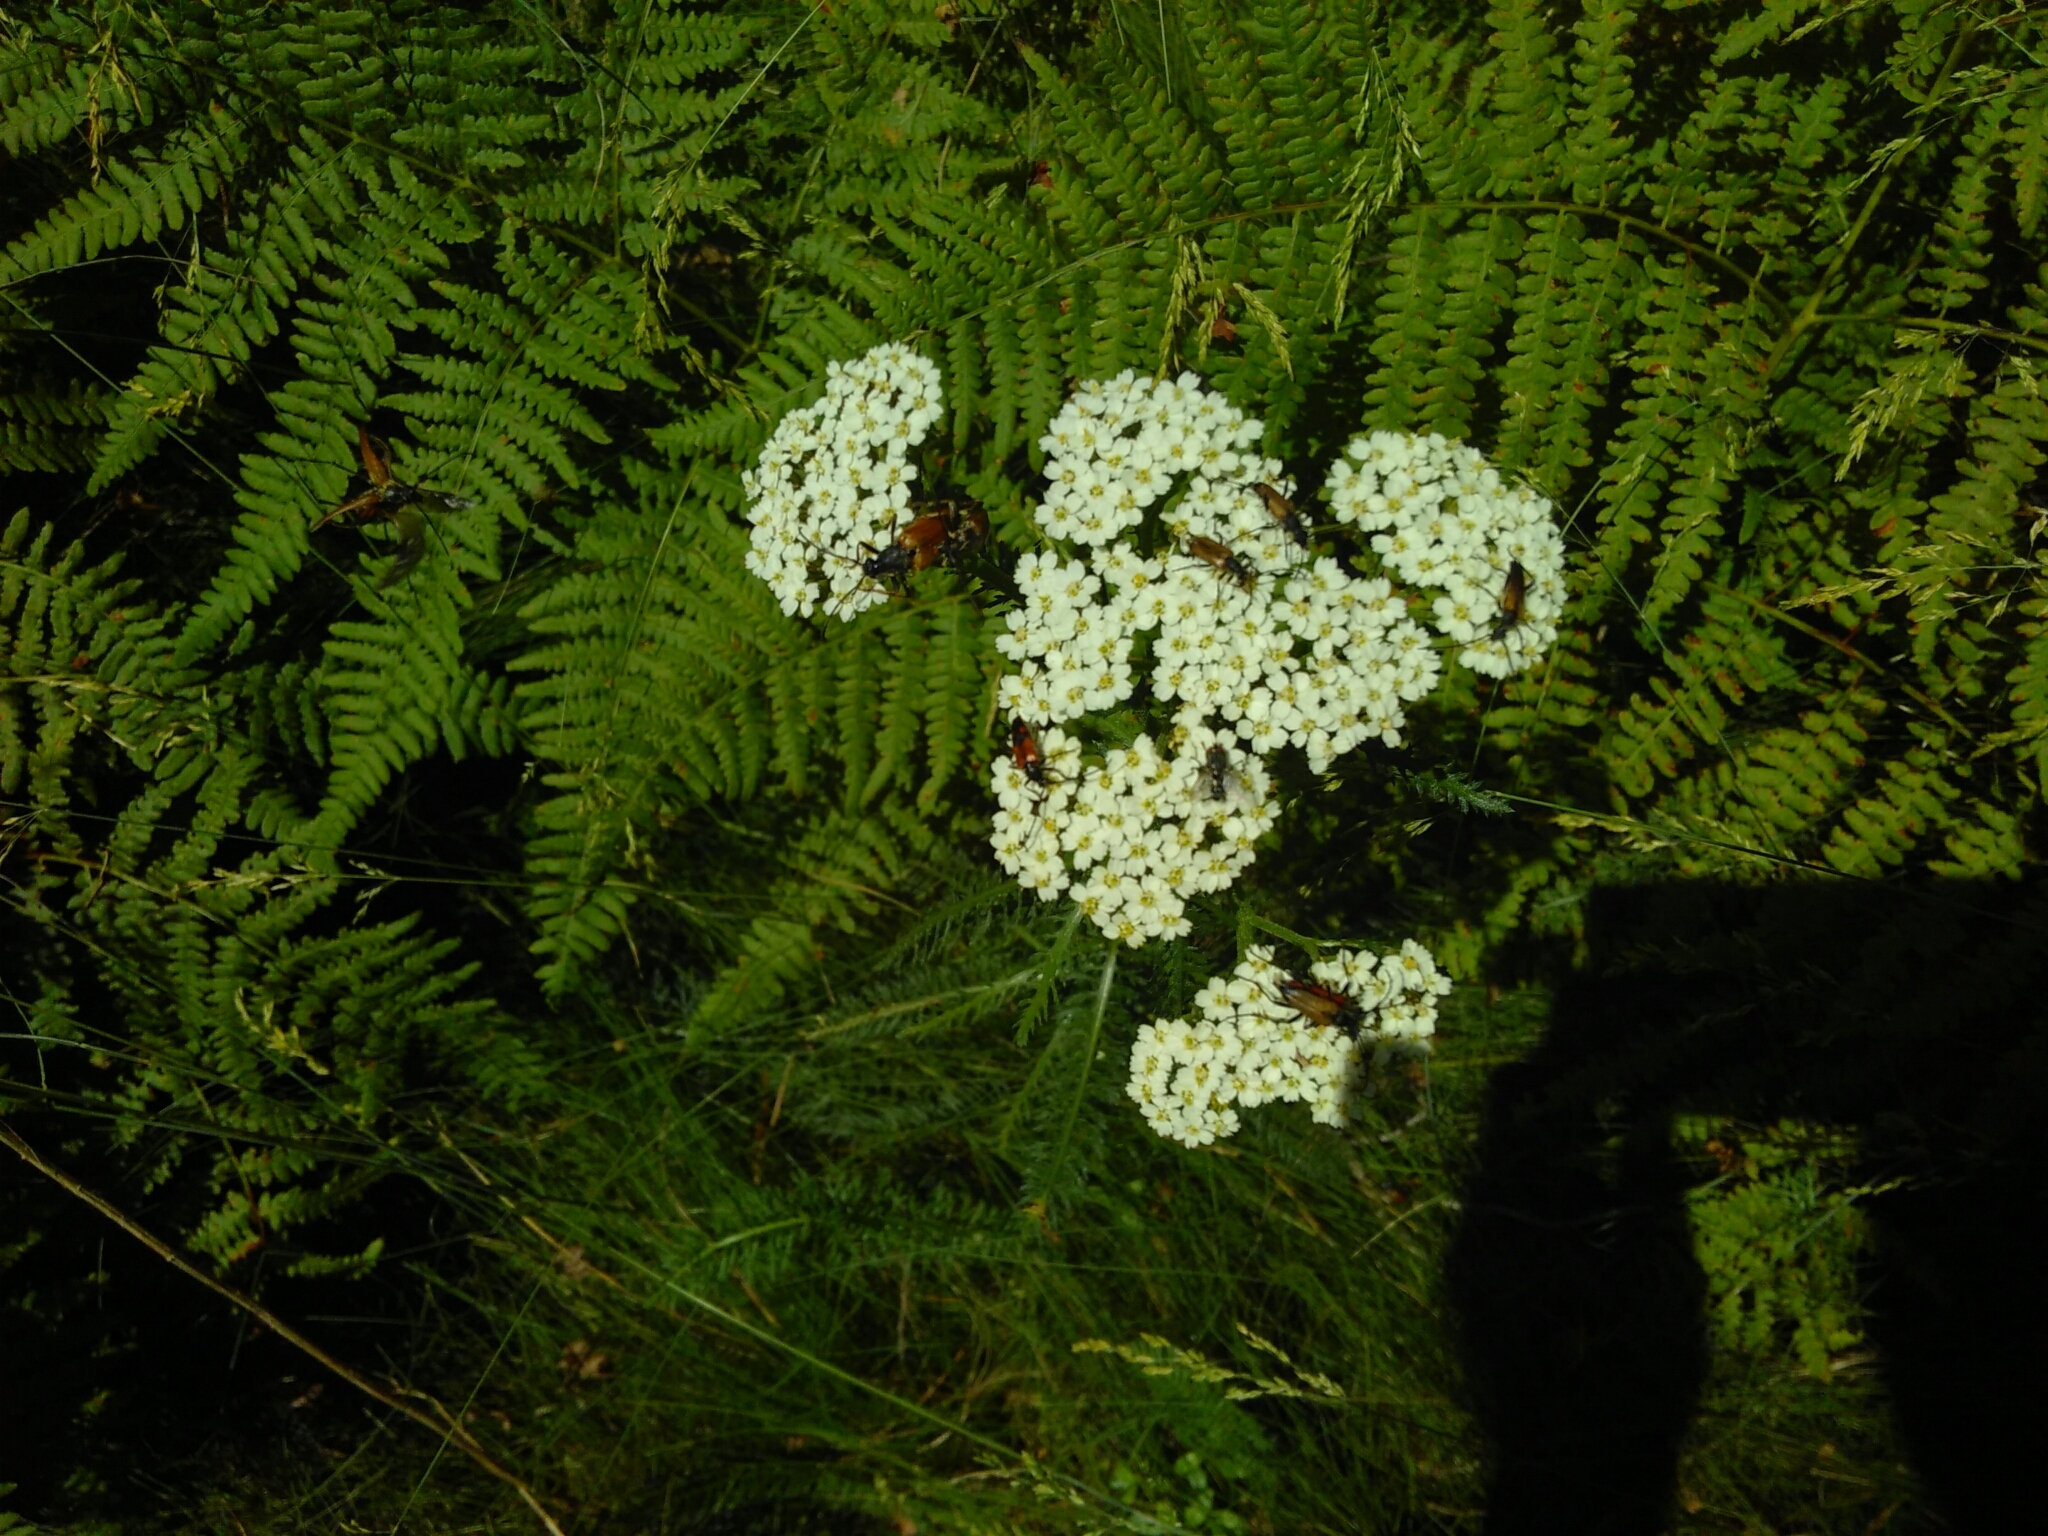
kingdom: Plantae
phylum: Tracheophyta
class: Magnoliopsida
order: Asterales
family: Asteraceae
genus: Achillea
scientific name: Achillea millefolium
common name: Yarrow
